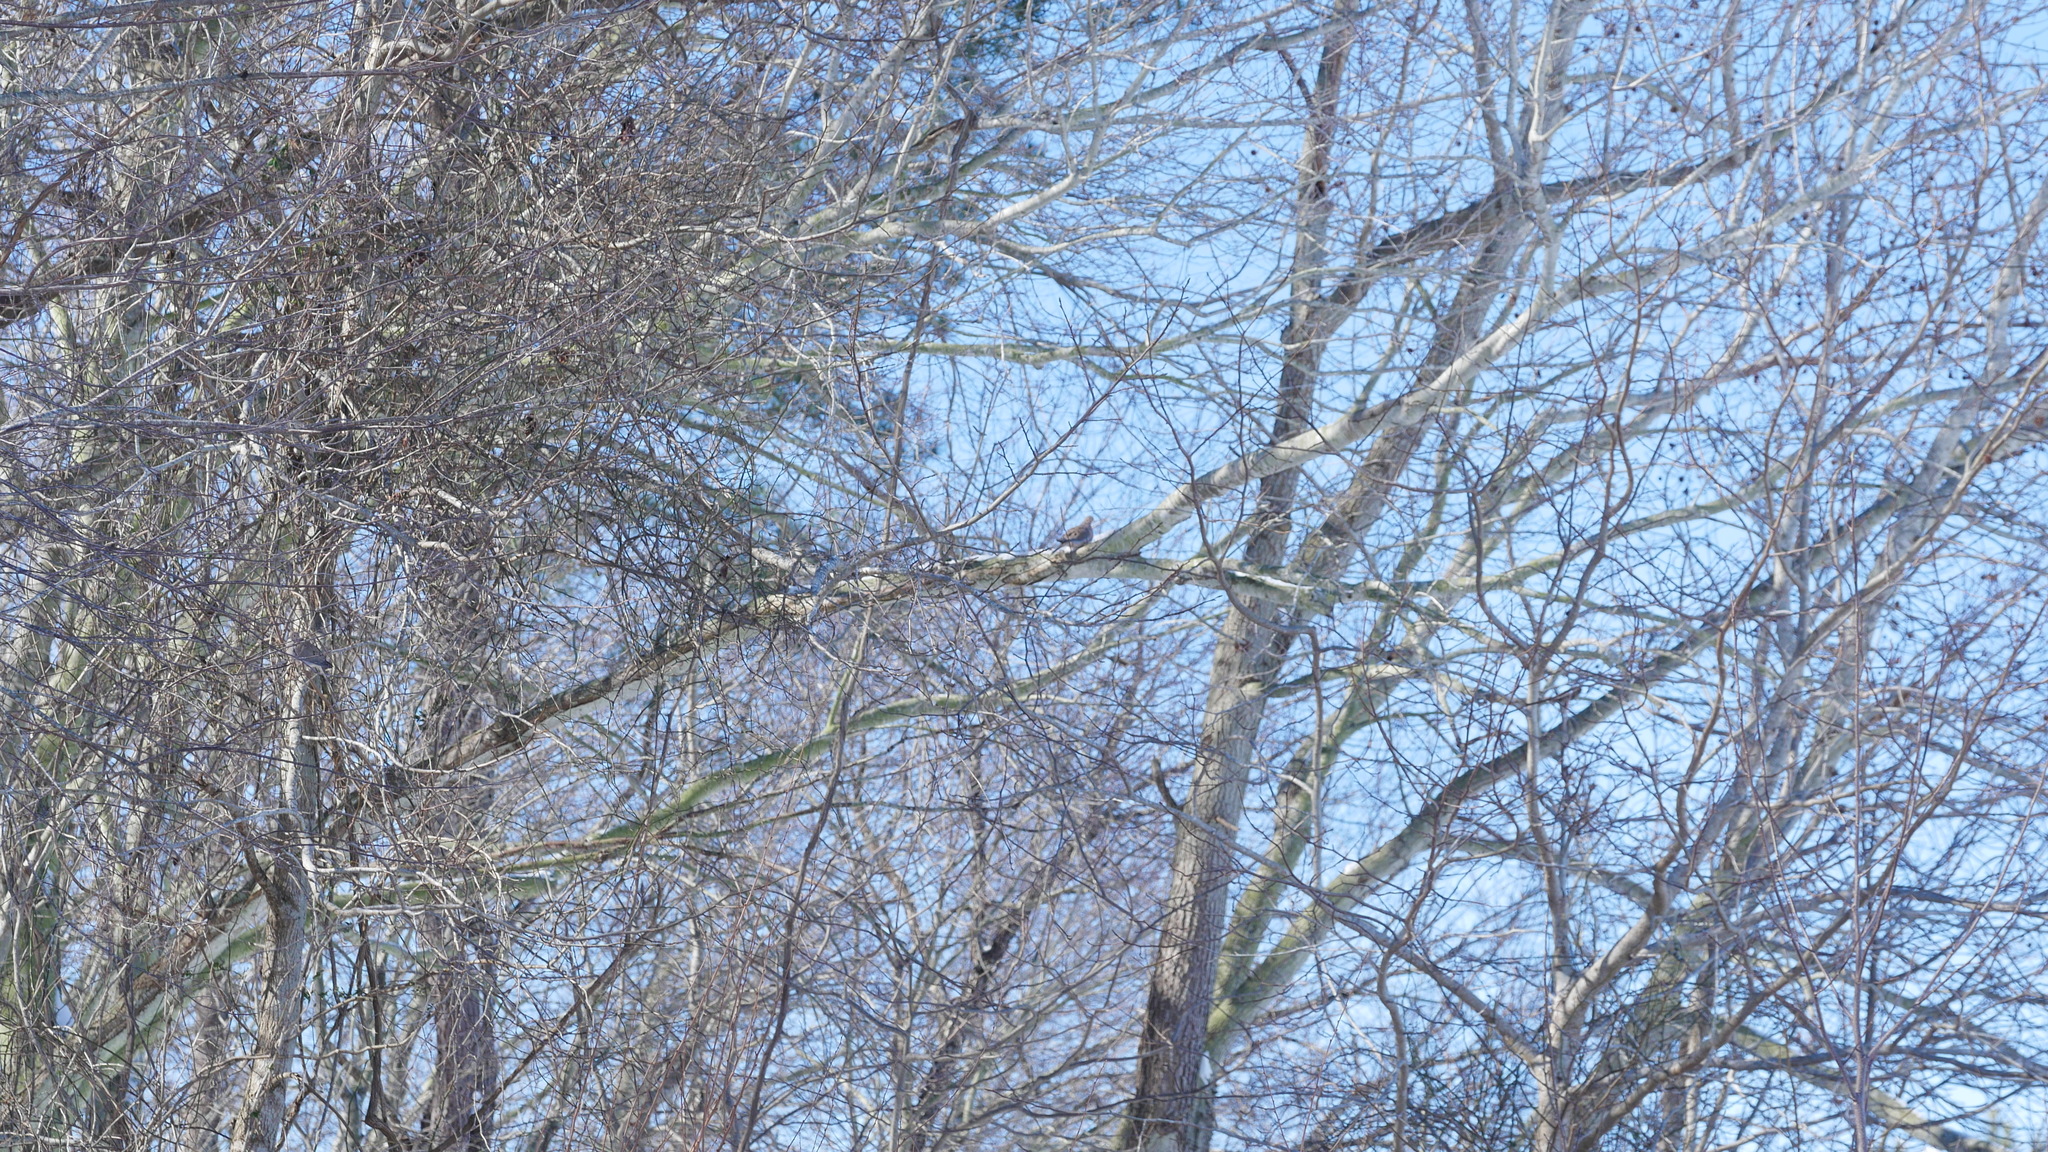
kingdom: Animalia
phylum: Chordata
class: Aves
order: Columbiformes
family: Columbidae
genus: Zenaida
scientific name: Zenaida macroura
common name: Mourning dove
